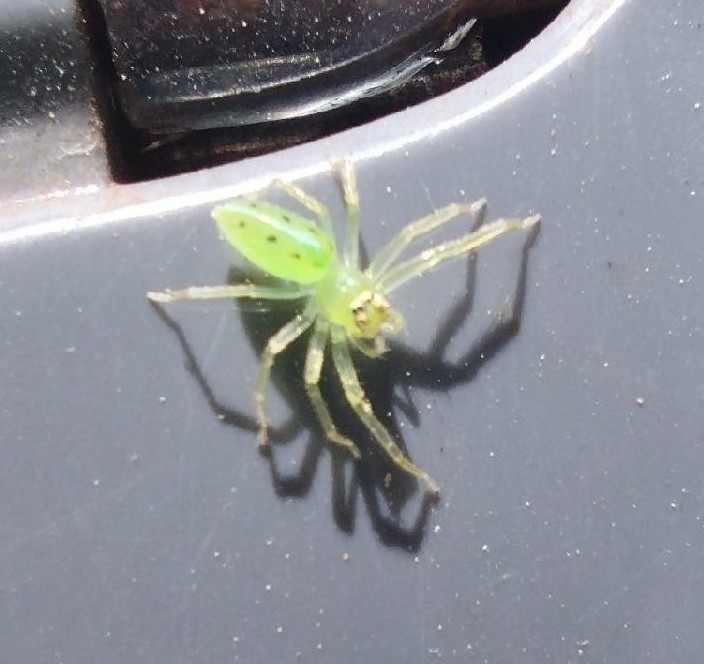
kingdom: Animalia
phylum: Arthropoda
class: Arachnida
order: Araneae
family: Salticidae
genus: Lyssomanes
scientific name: Lyssomanes viridis
